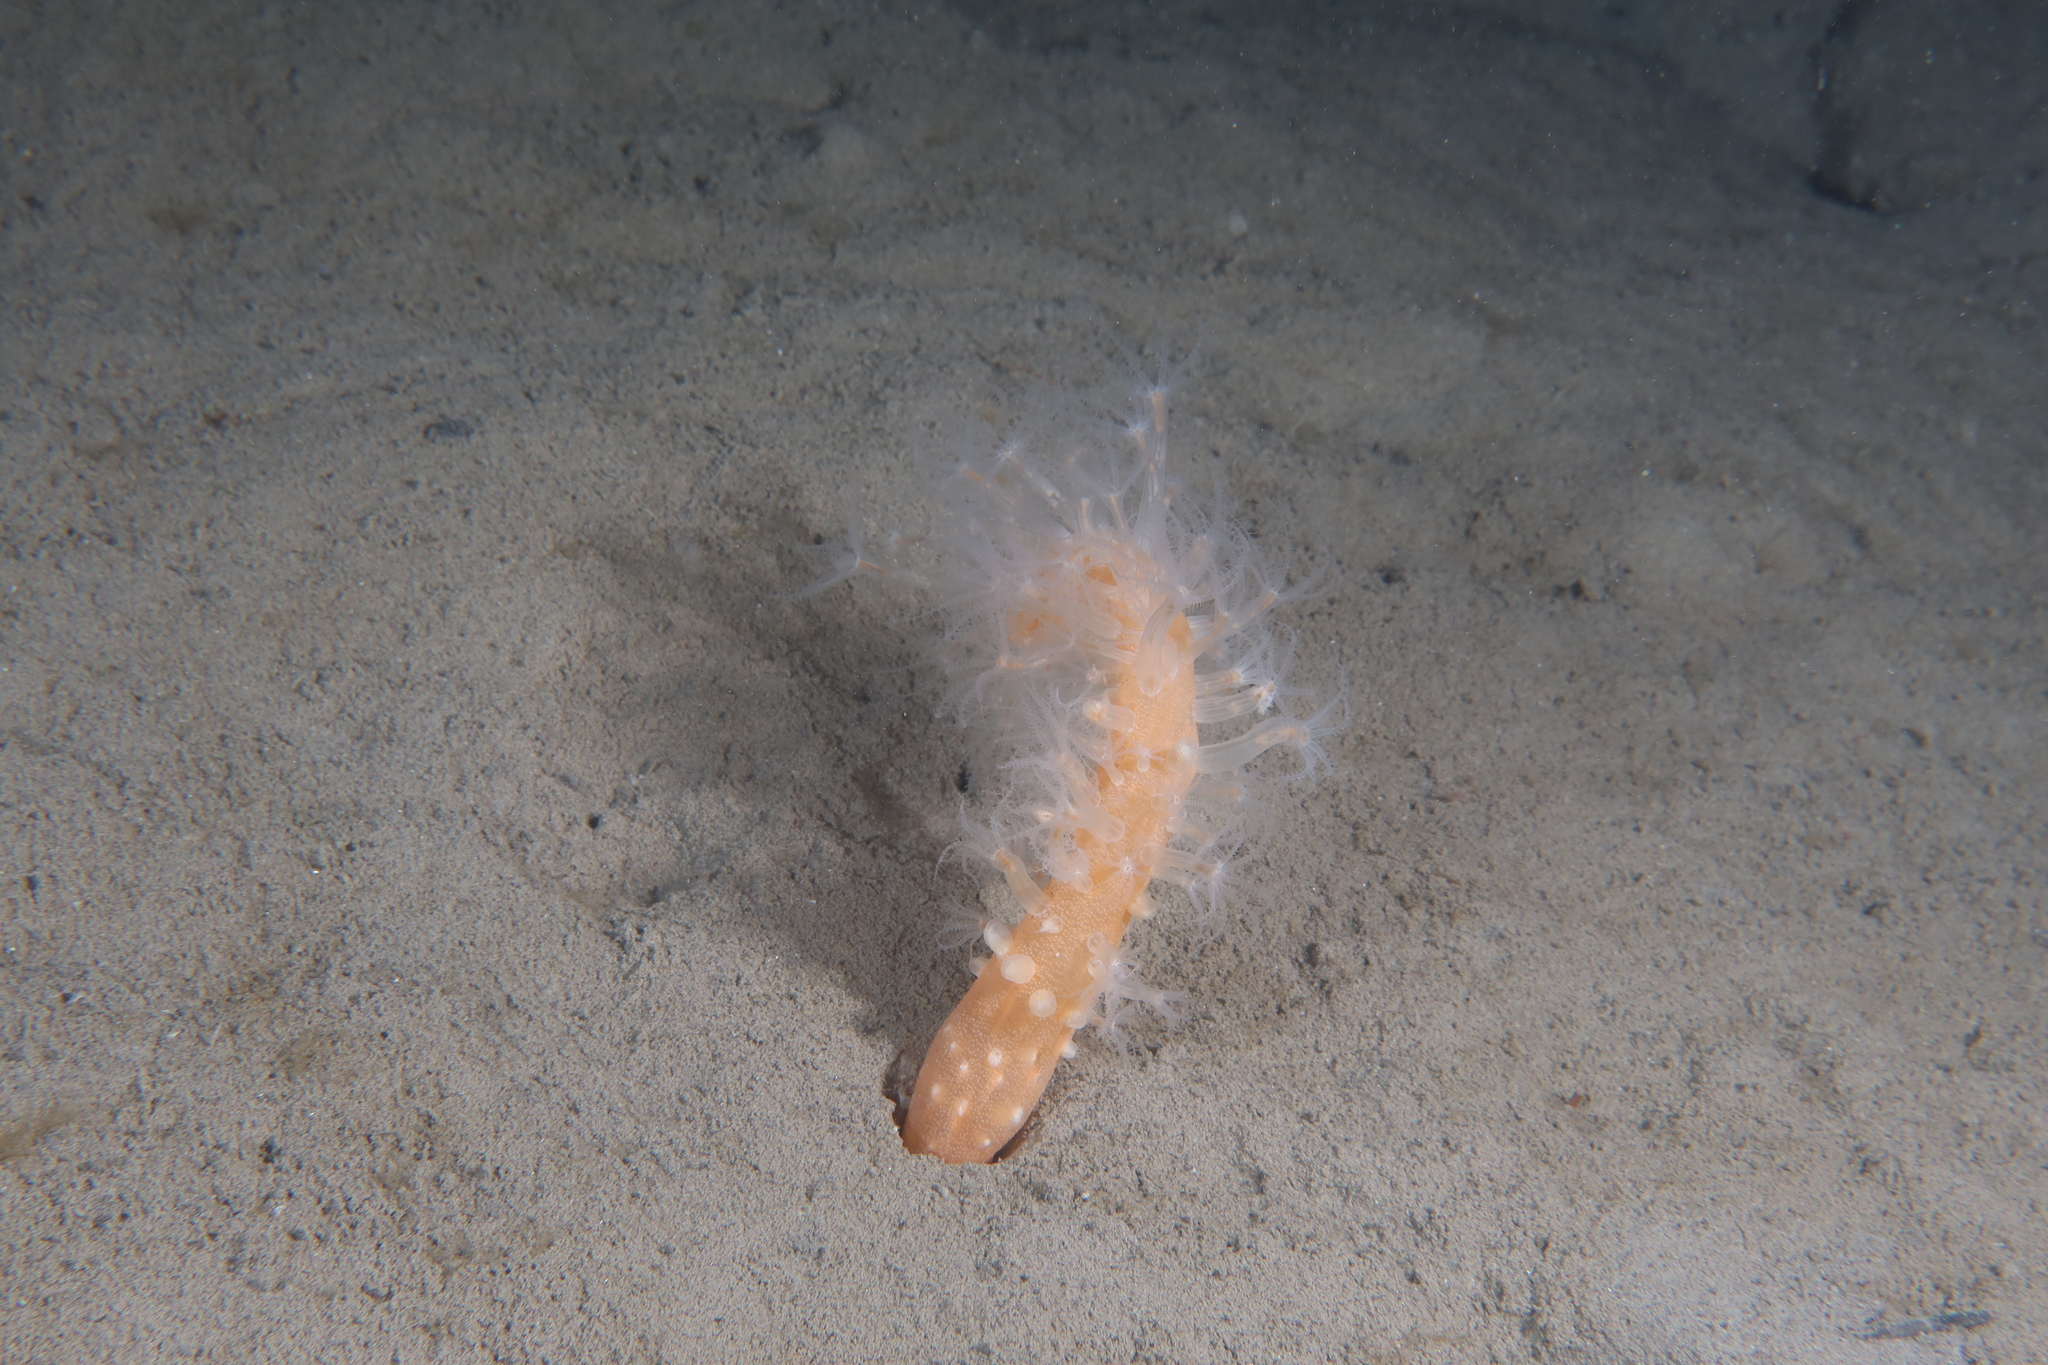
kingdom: Animalia
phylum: Cnidaria
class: Anthozoa
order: Scleralcyonacea
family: Veretillidae
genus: Veretillum
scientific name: Veretillum cynomorium
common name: Finger-shaped sea-pen
